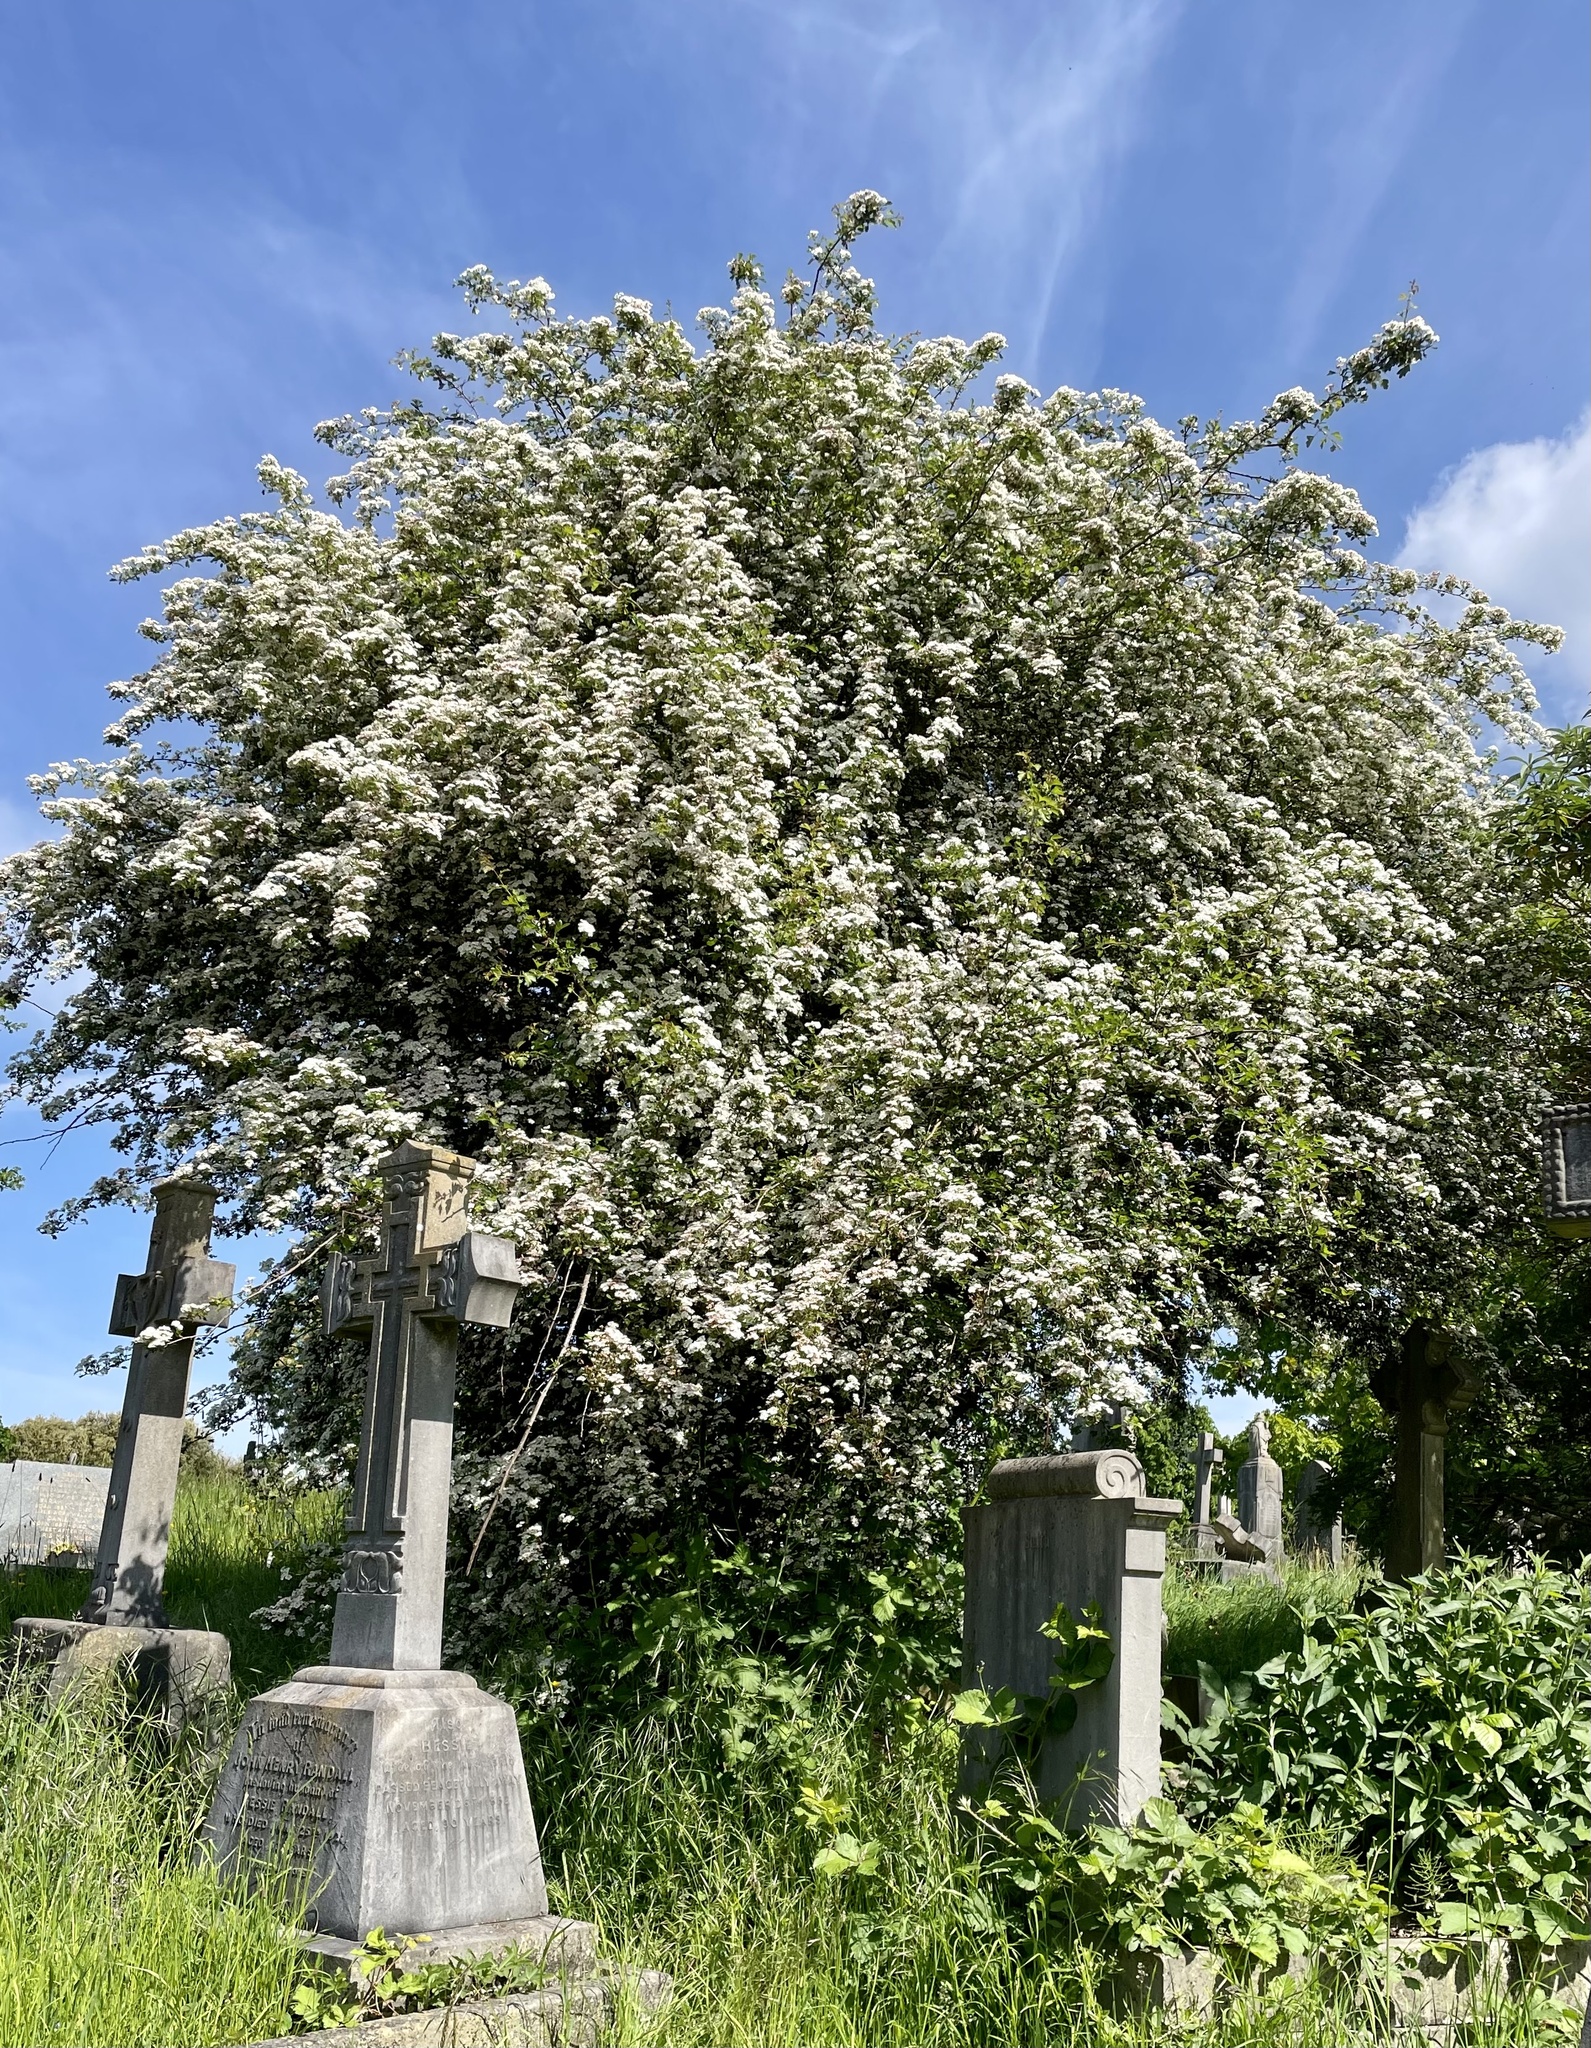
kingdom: Plantae
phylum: Tracheophyta
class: Magnoliopsida
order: Rosales
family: Rosaceae
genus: Crataegus
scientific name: Crataegus monogyna
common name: Hawthorn
